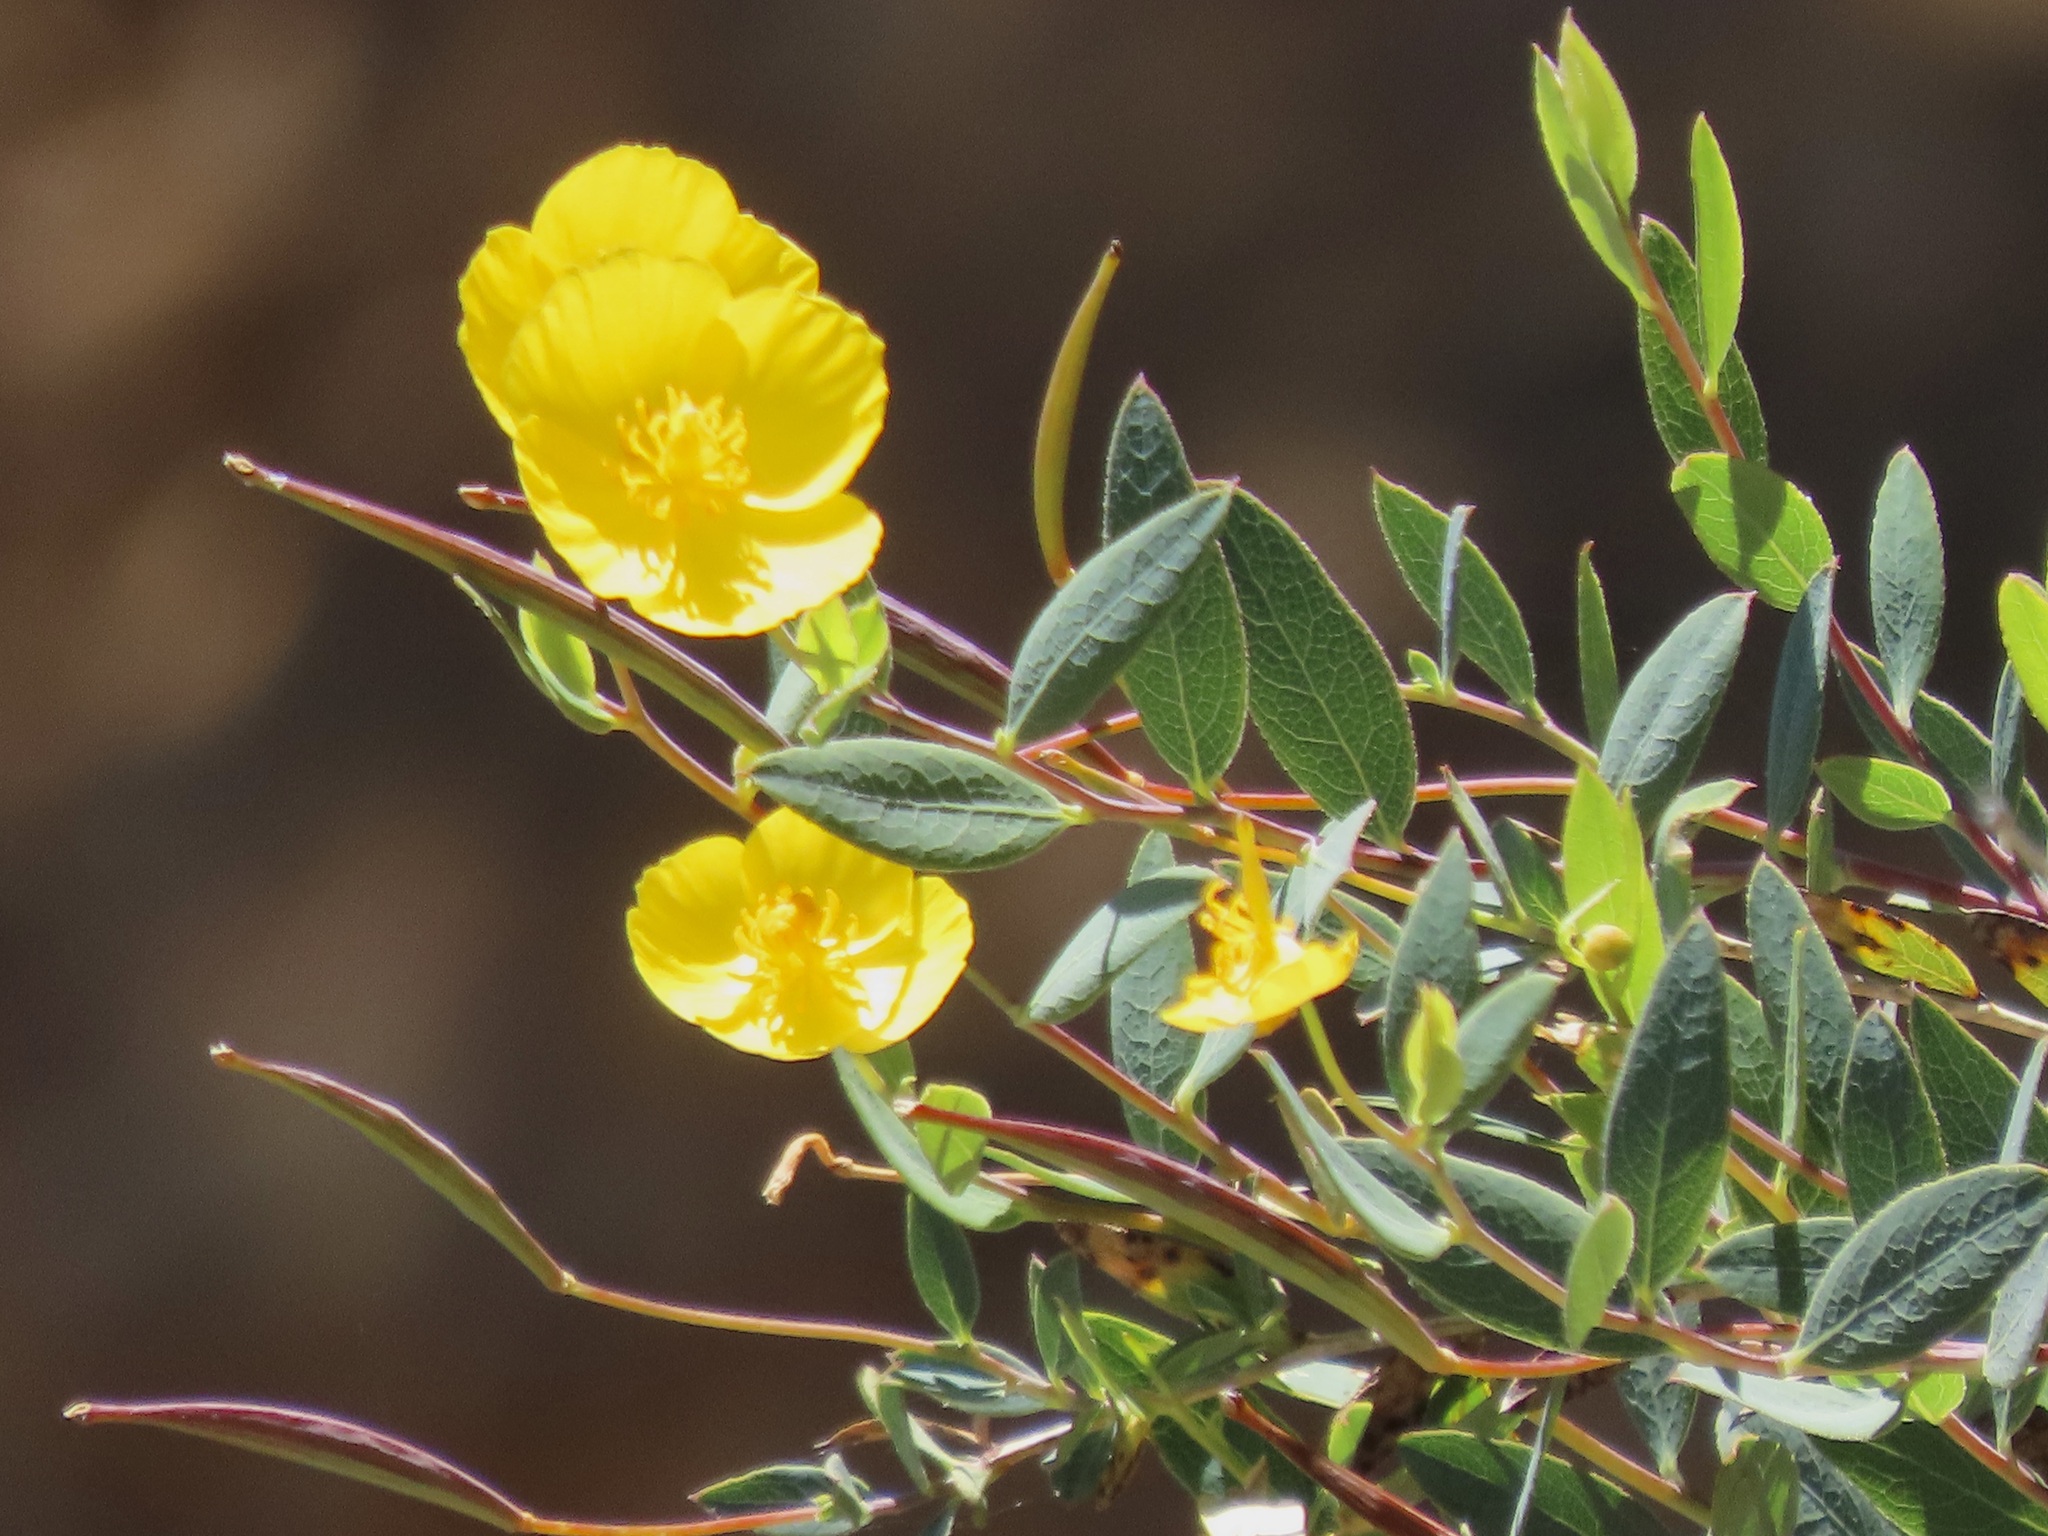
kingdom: Plantae
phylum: Tracheophyta
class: Magnoliopsida
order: Ranunculales
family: Papaveraceae
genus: Dendromecon
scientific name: Dendromecon rigida
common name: Tree poppy
